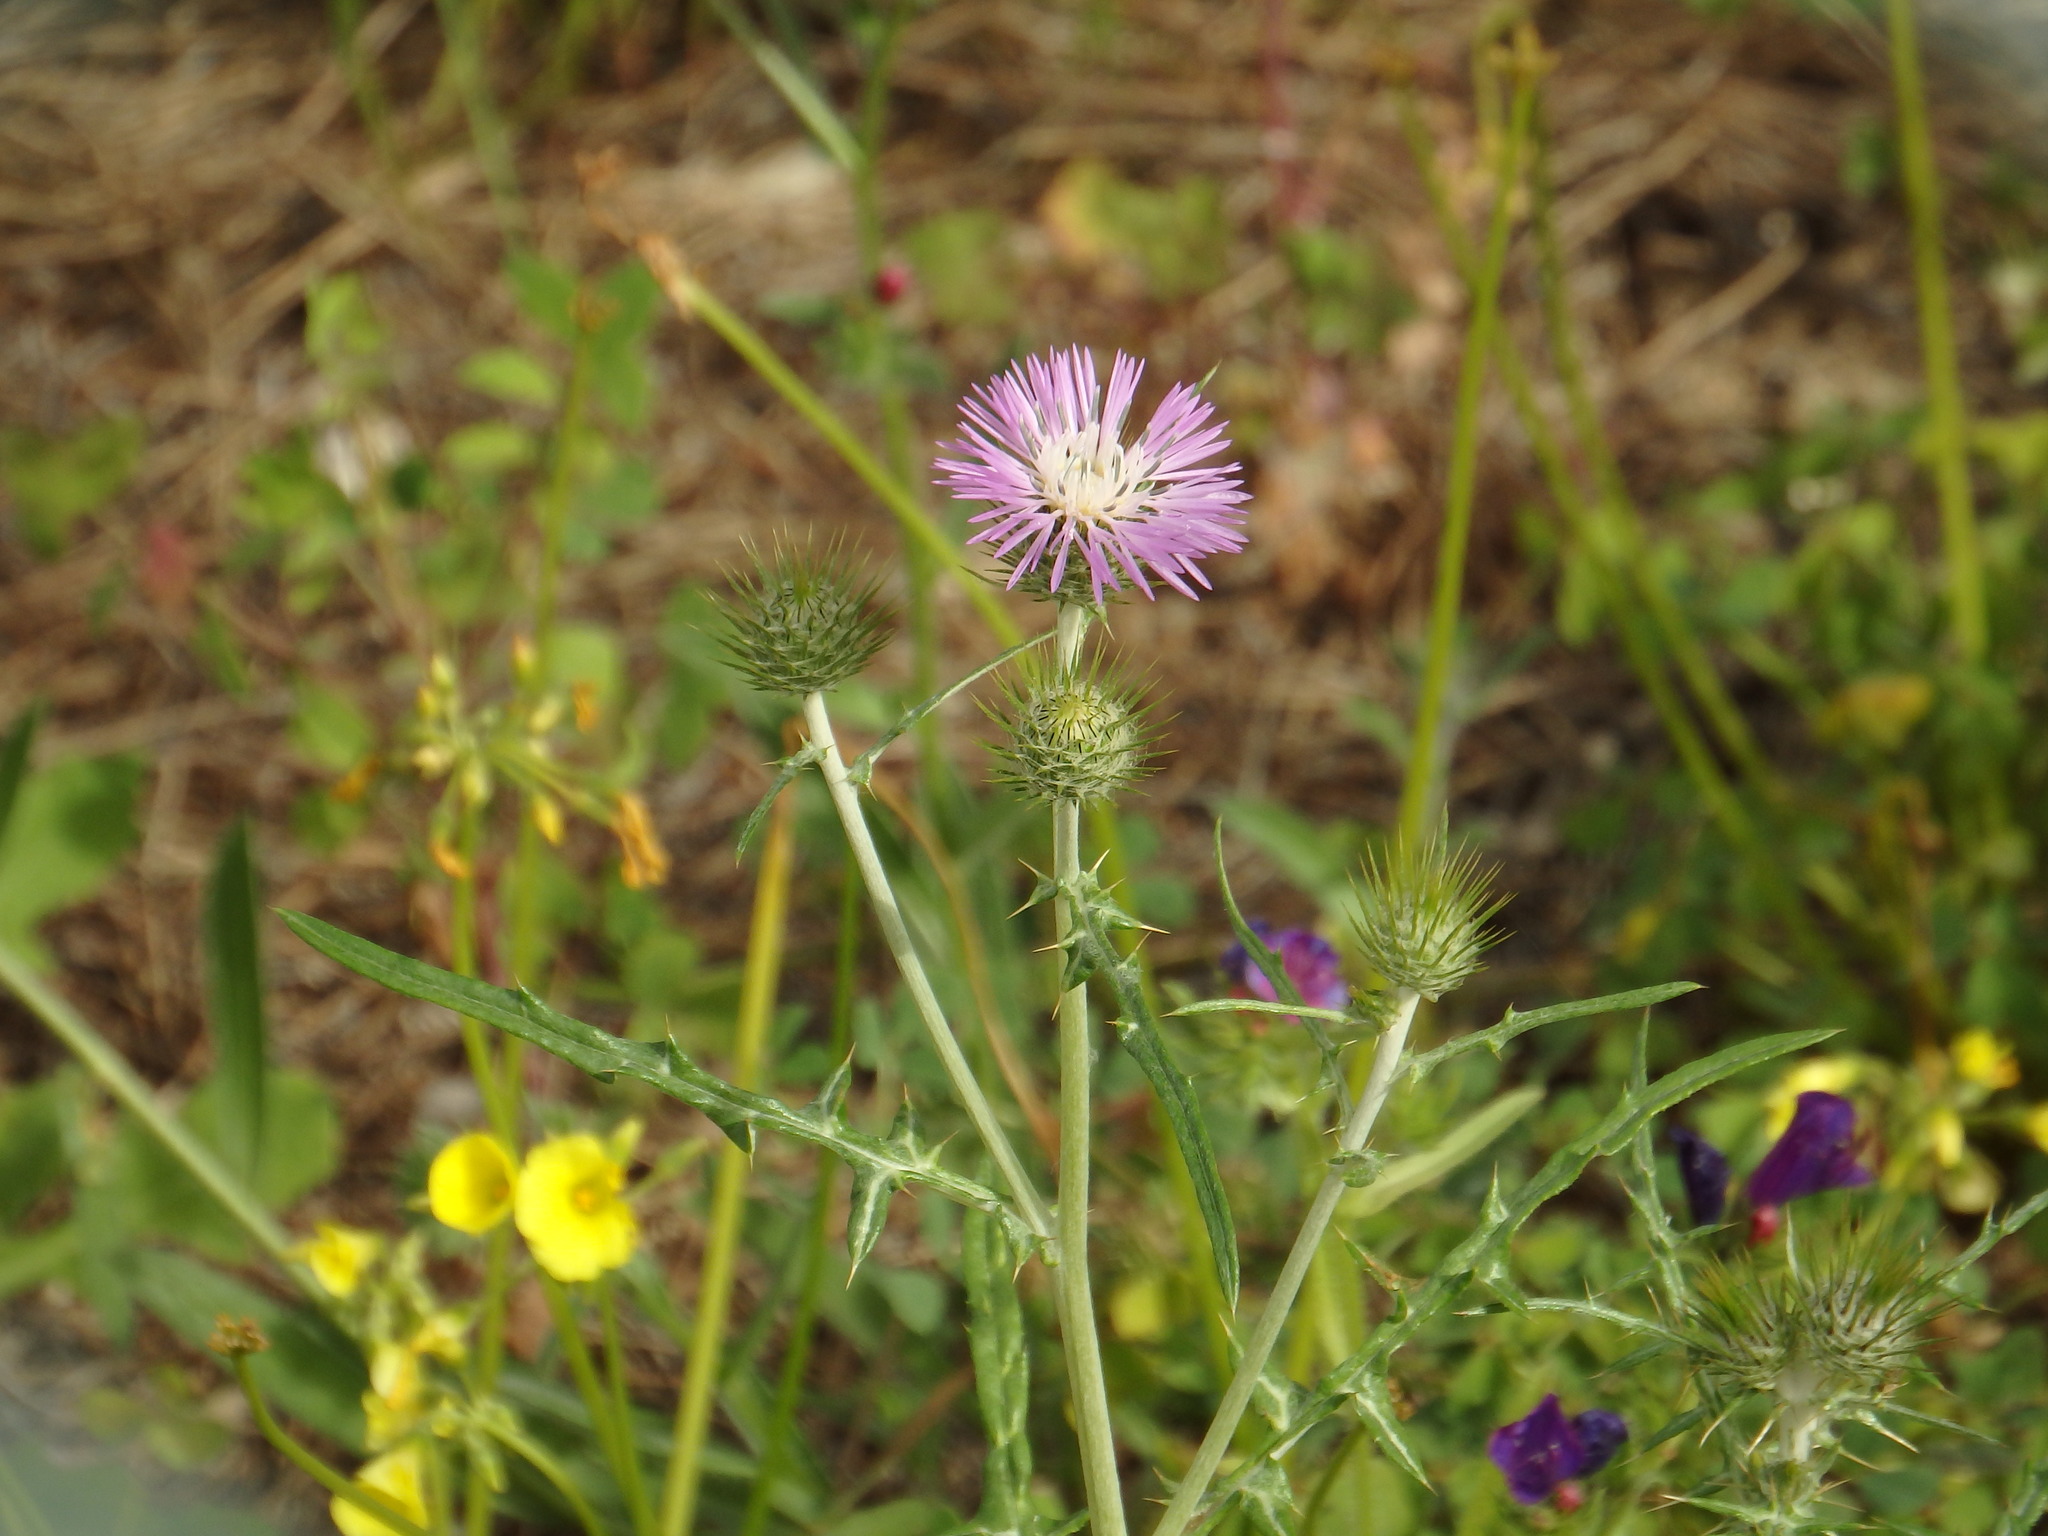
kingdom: Plantae
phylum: Tracheophyta
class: Magnoliopsida
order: Asterales
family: Asteraceae
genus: Galactites
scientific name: Galactites tomentosa
